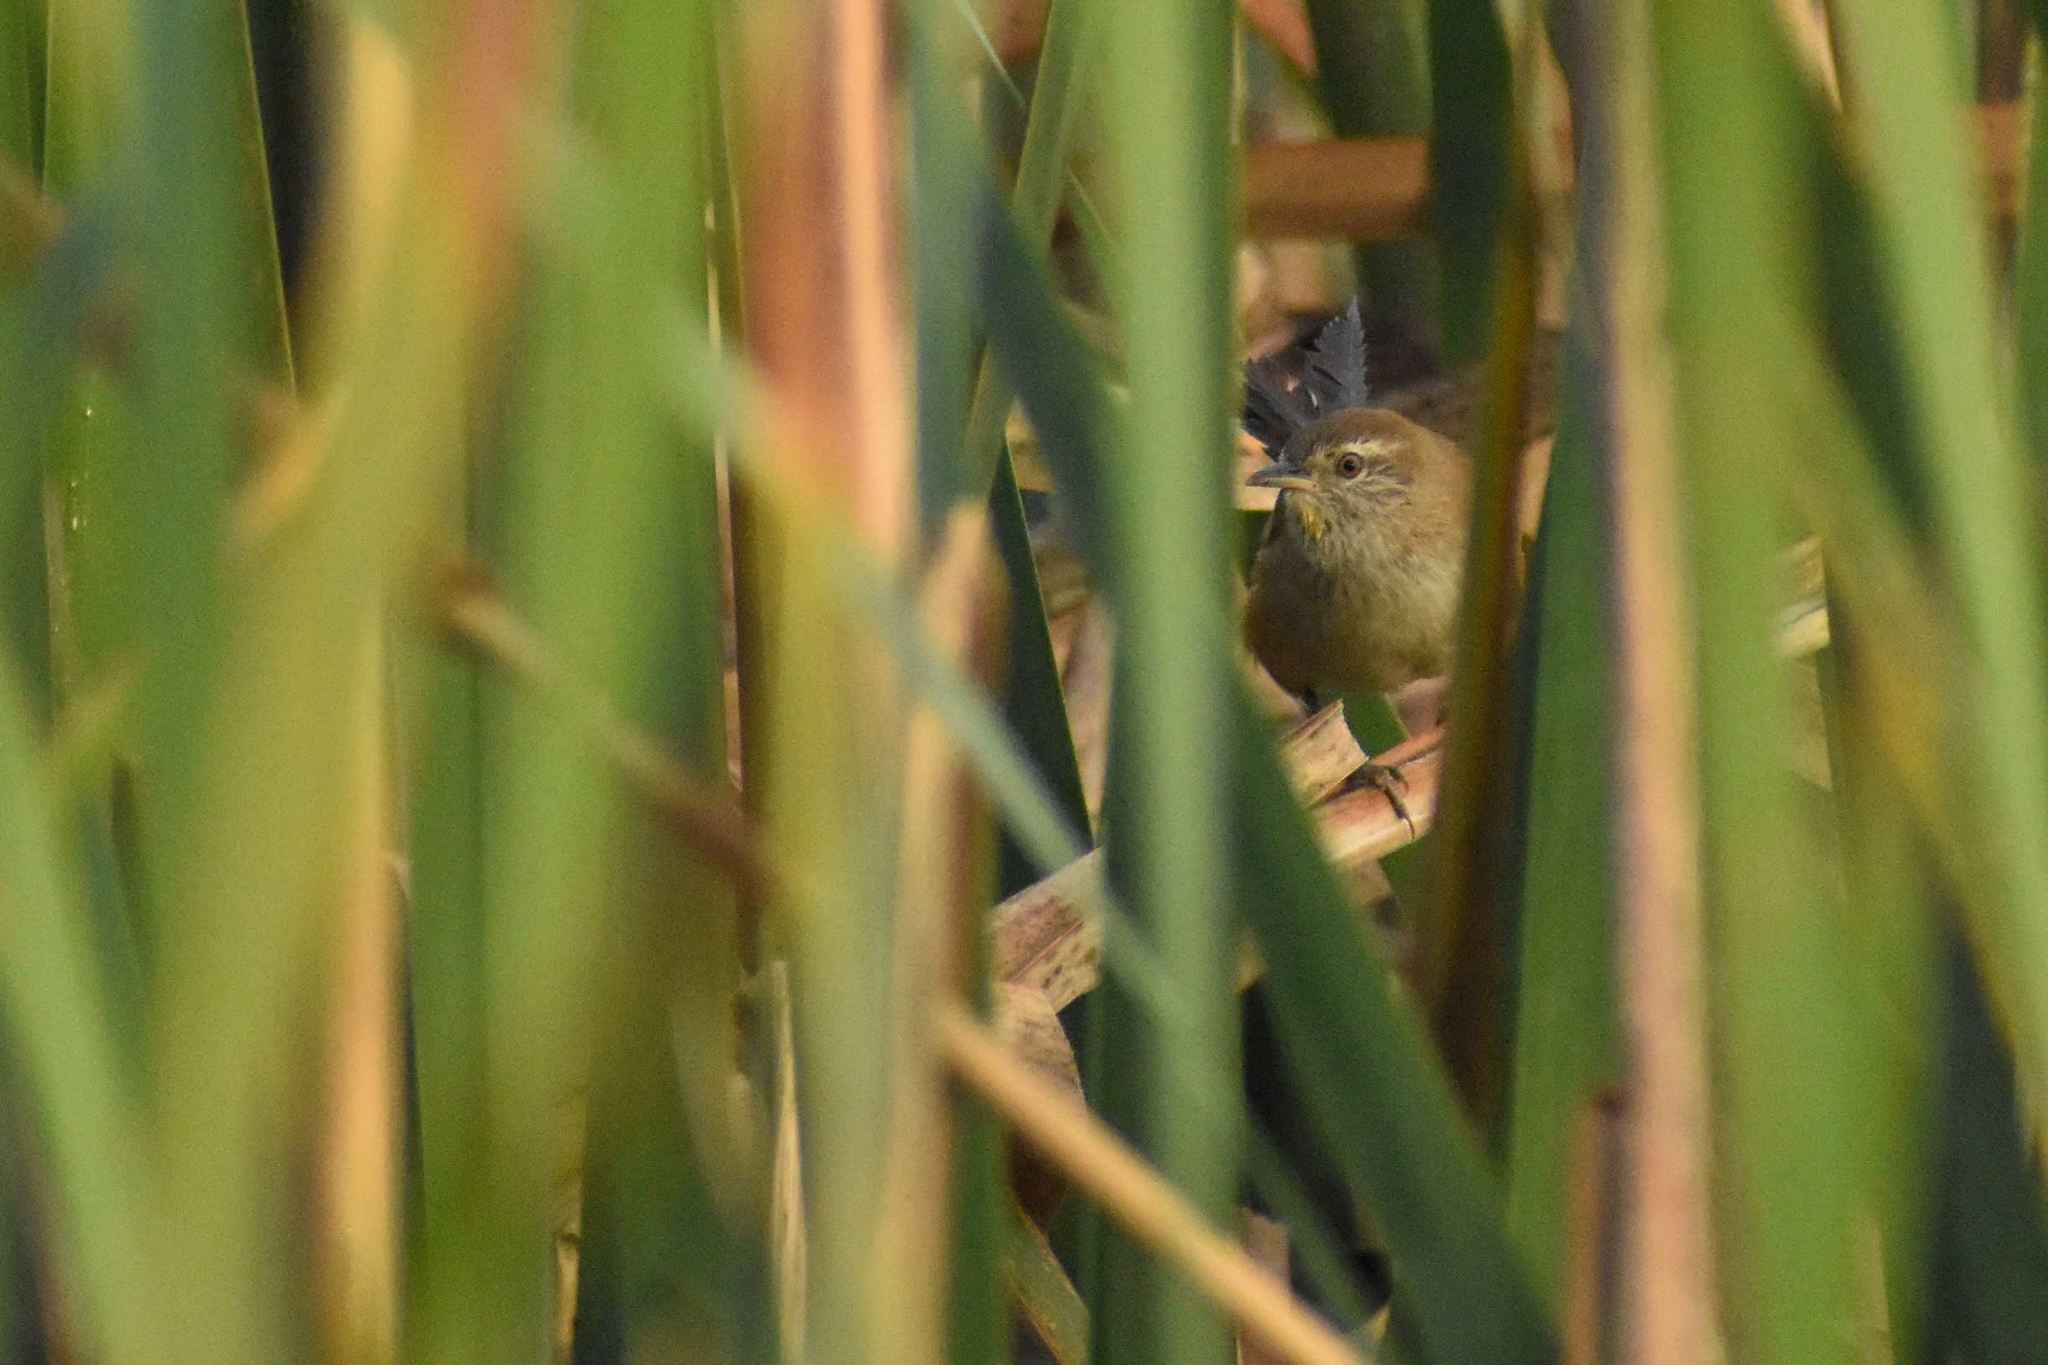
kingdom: Animalia
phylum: Chordata
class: Aves
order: Passeriformes
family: Furnariidae
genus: Cranioleuca
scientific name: Cranioleuca sulphurifera
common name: Sulphur-bearded spinetail
